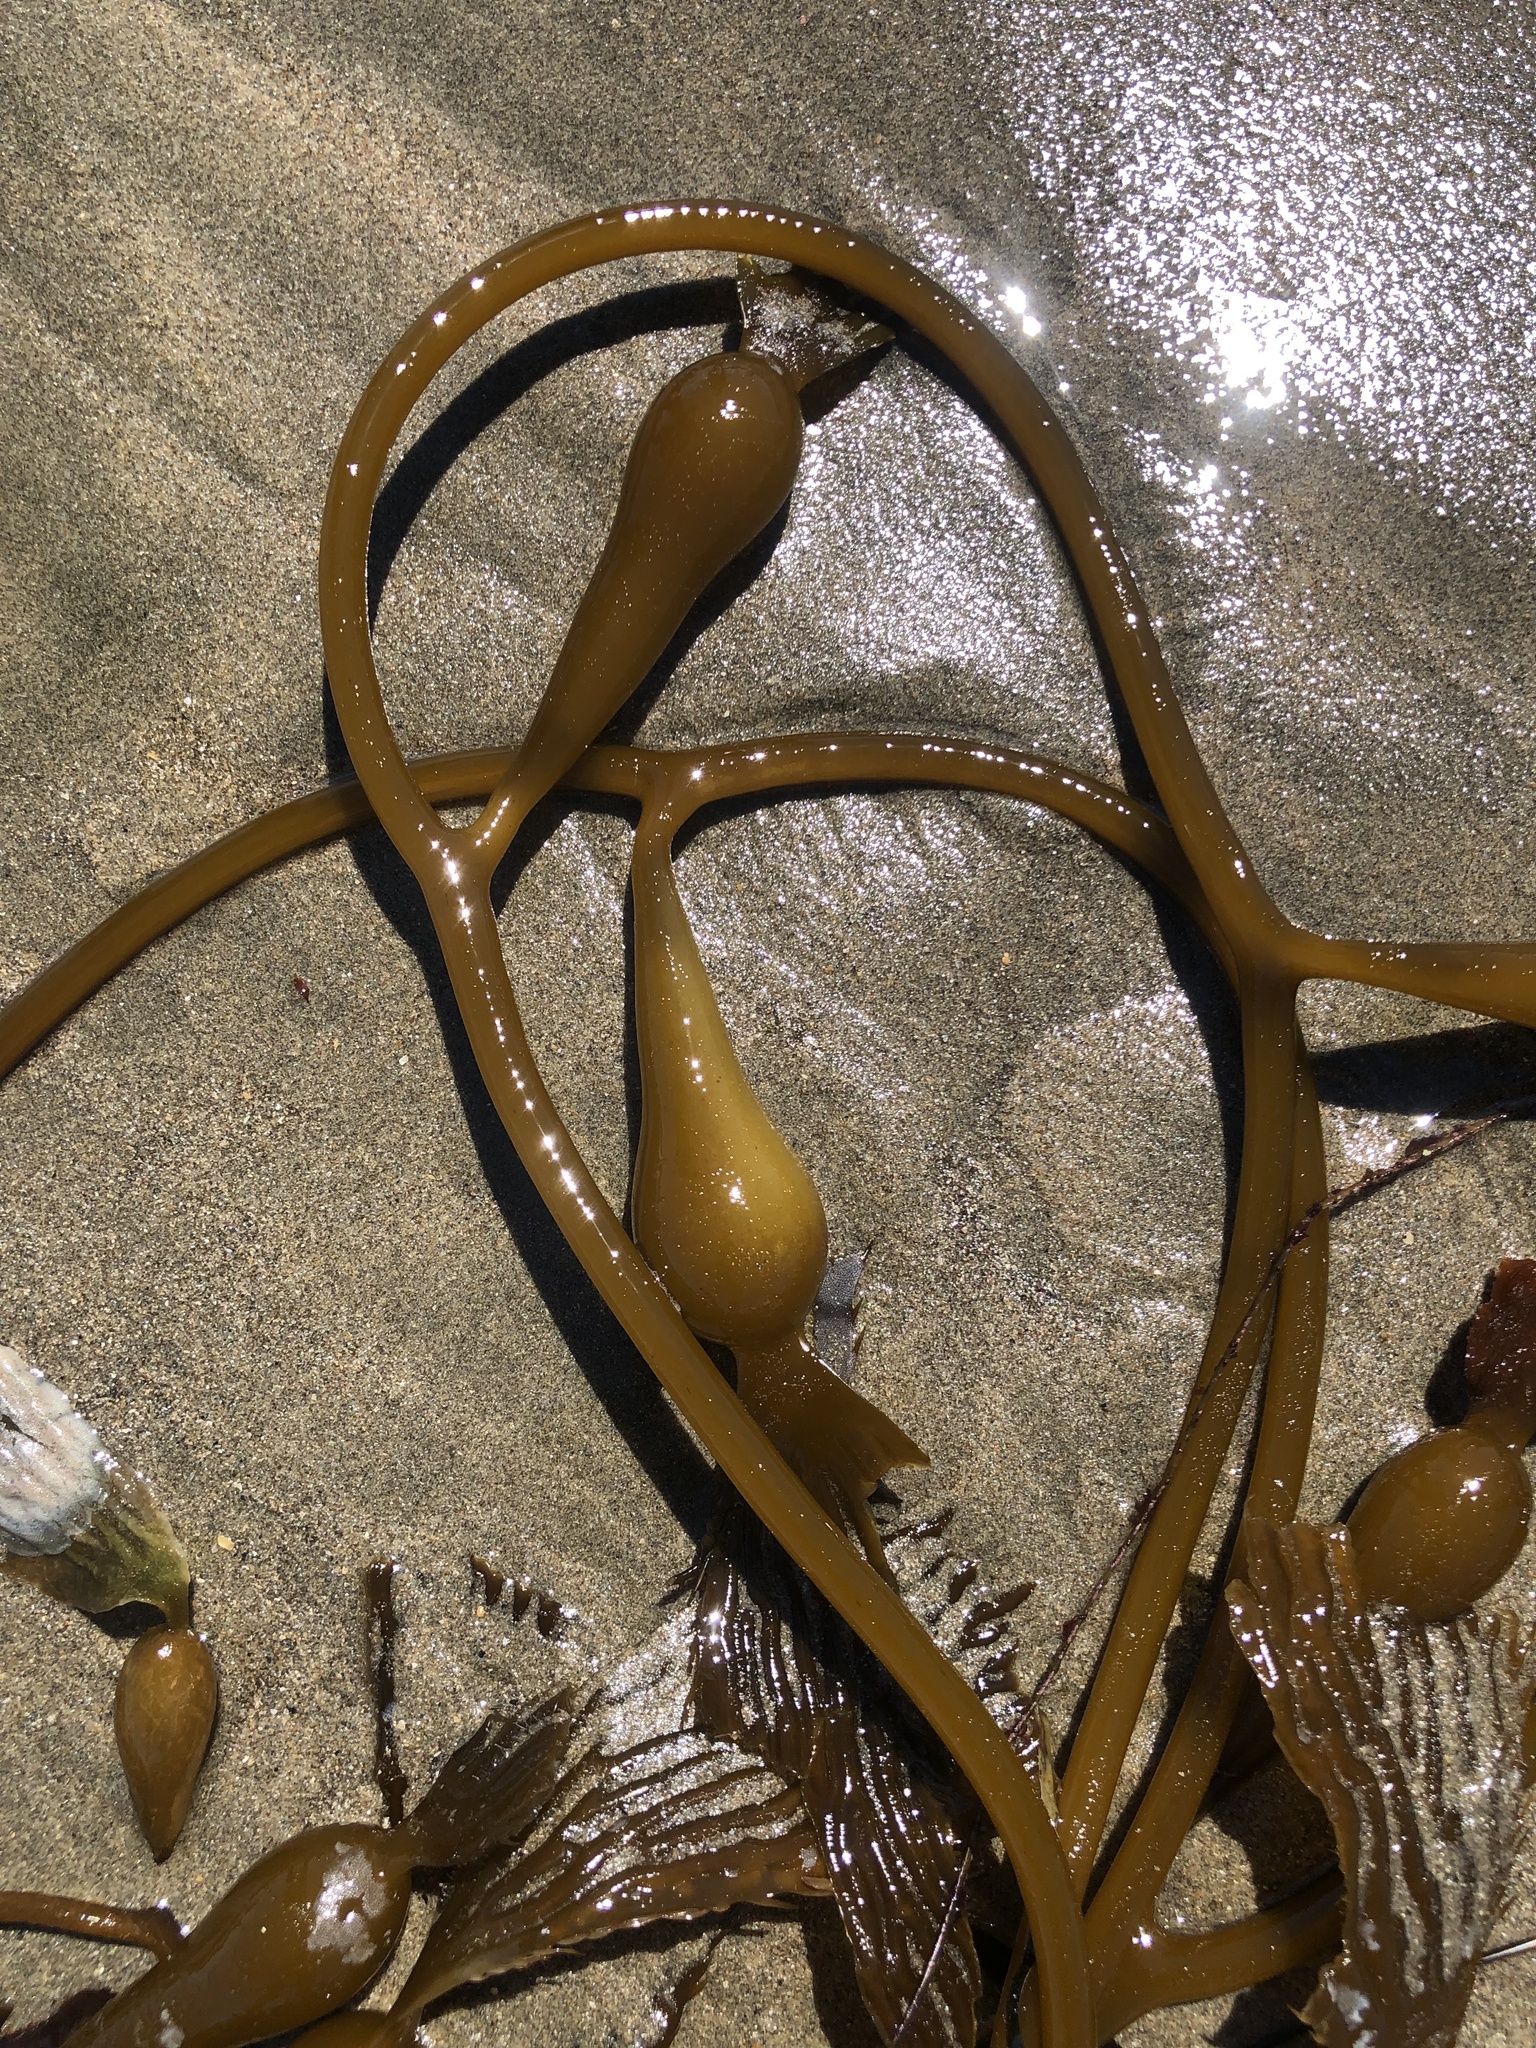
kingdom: Chromista
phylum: Ochrophyta
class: Phaeophyceae
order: Laminariales
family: Laminariaceae
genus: Macrocystis
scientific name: Macrocystis pyrifera
